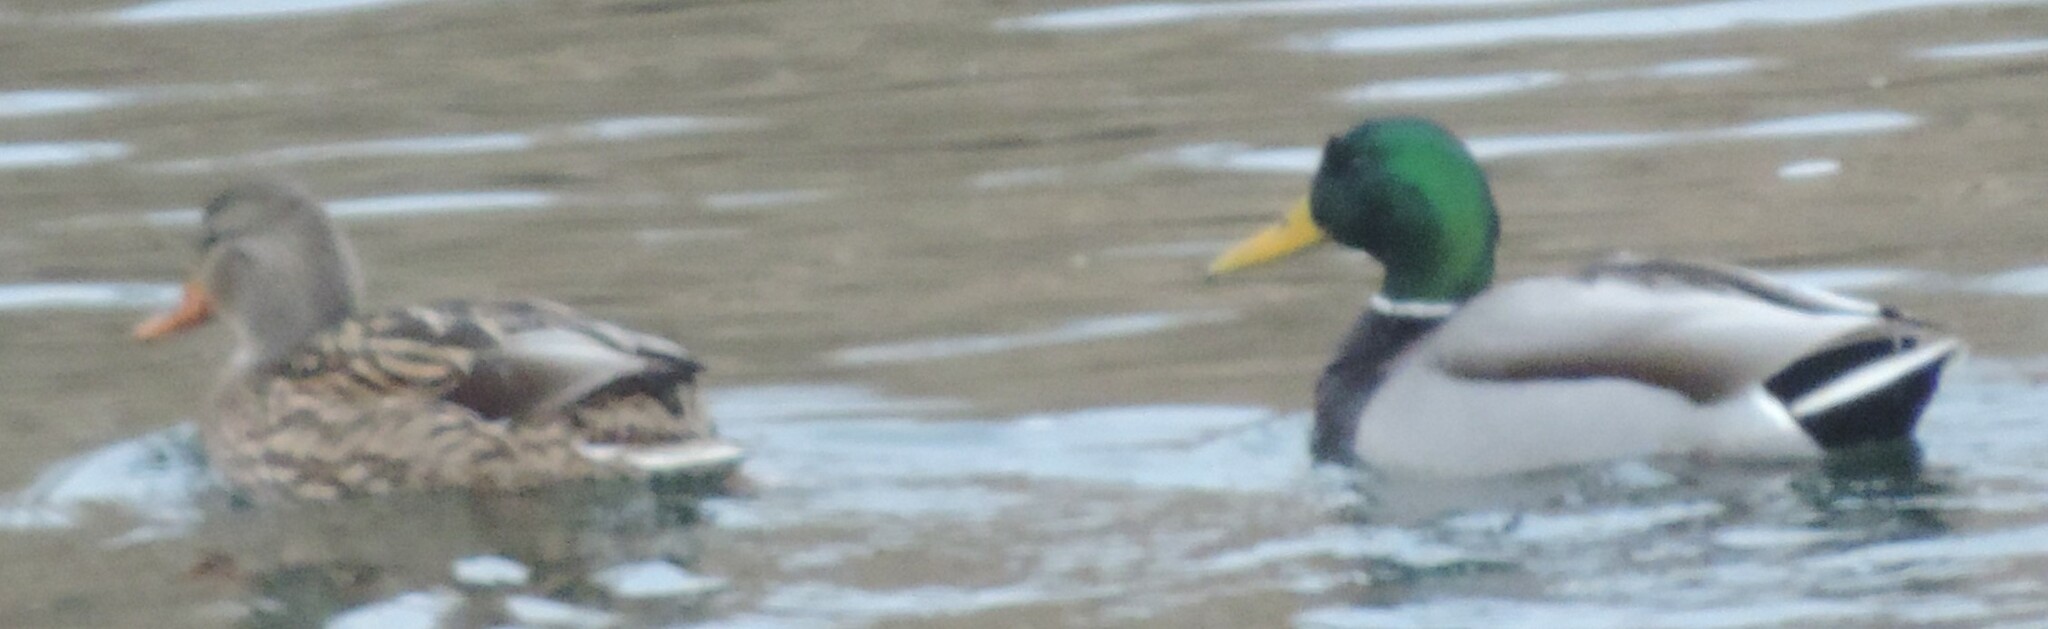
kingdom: Animalia
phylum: Chordata
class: Aves
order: Anseriformes
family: Anatidae
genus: Anas
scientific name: Anas platyrhynchos
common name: Mallard
